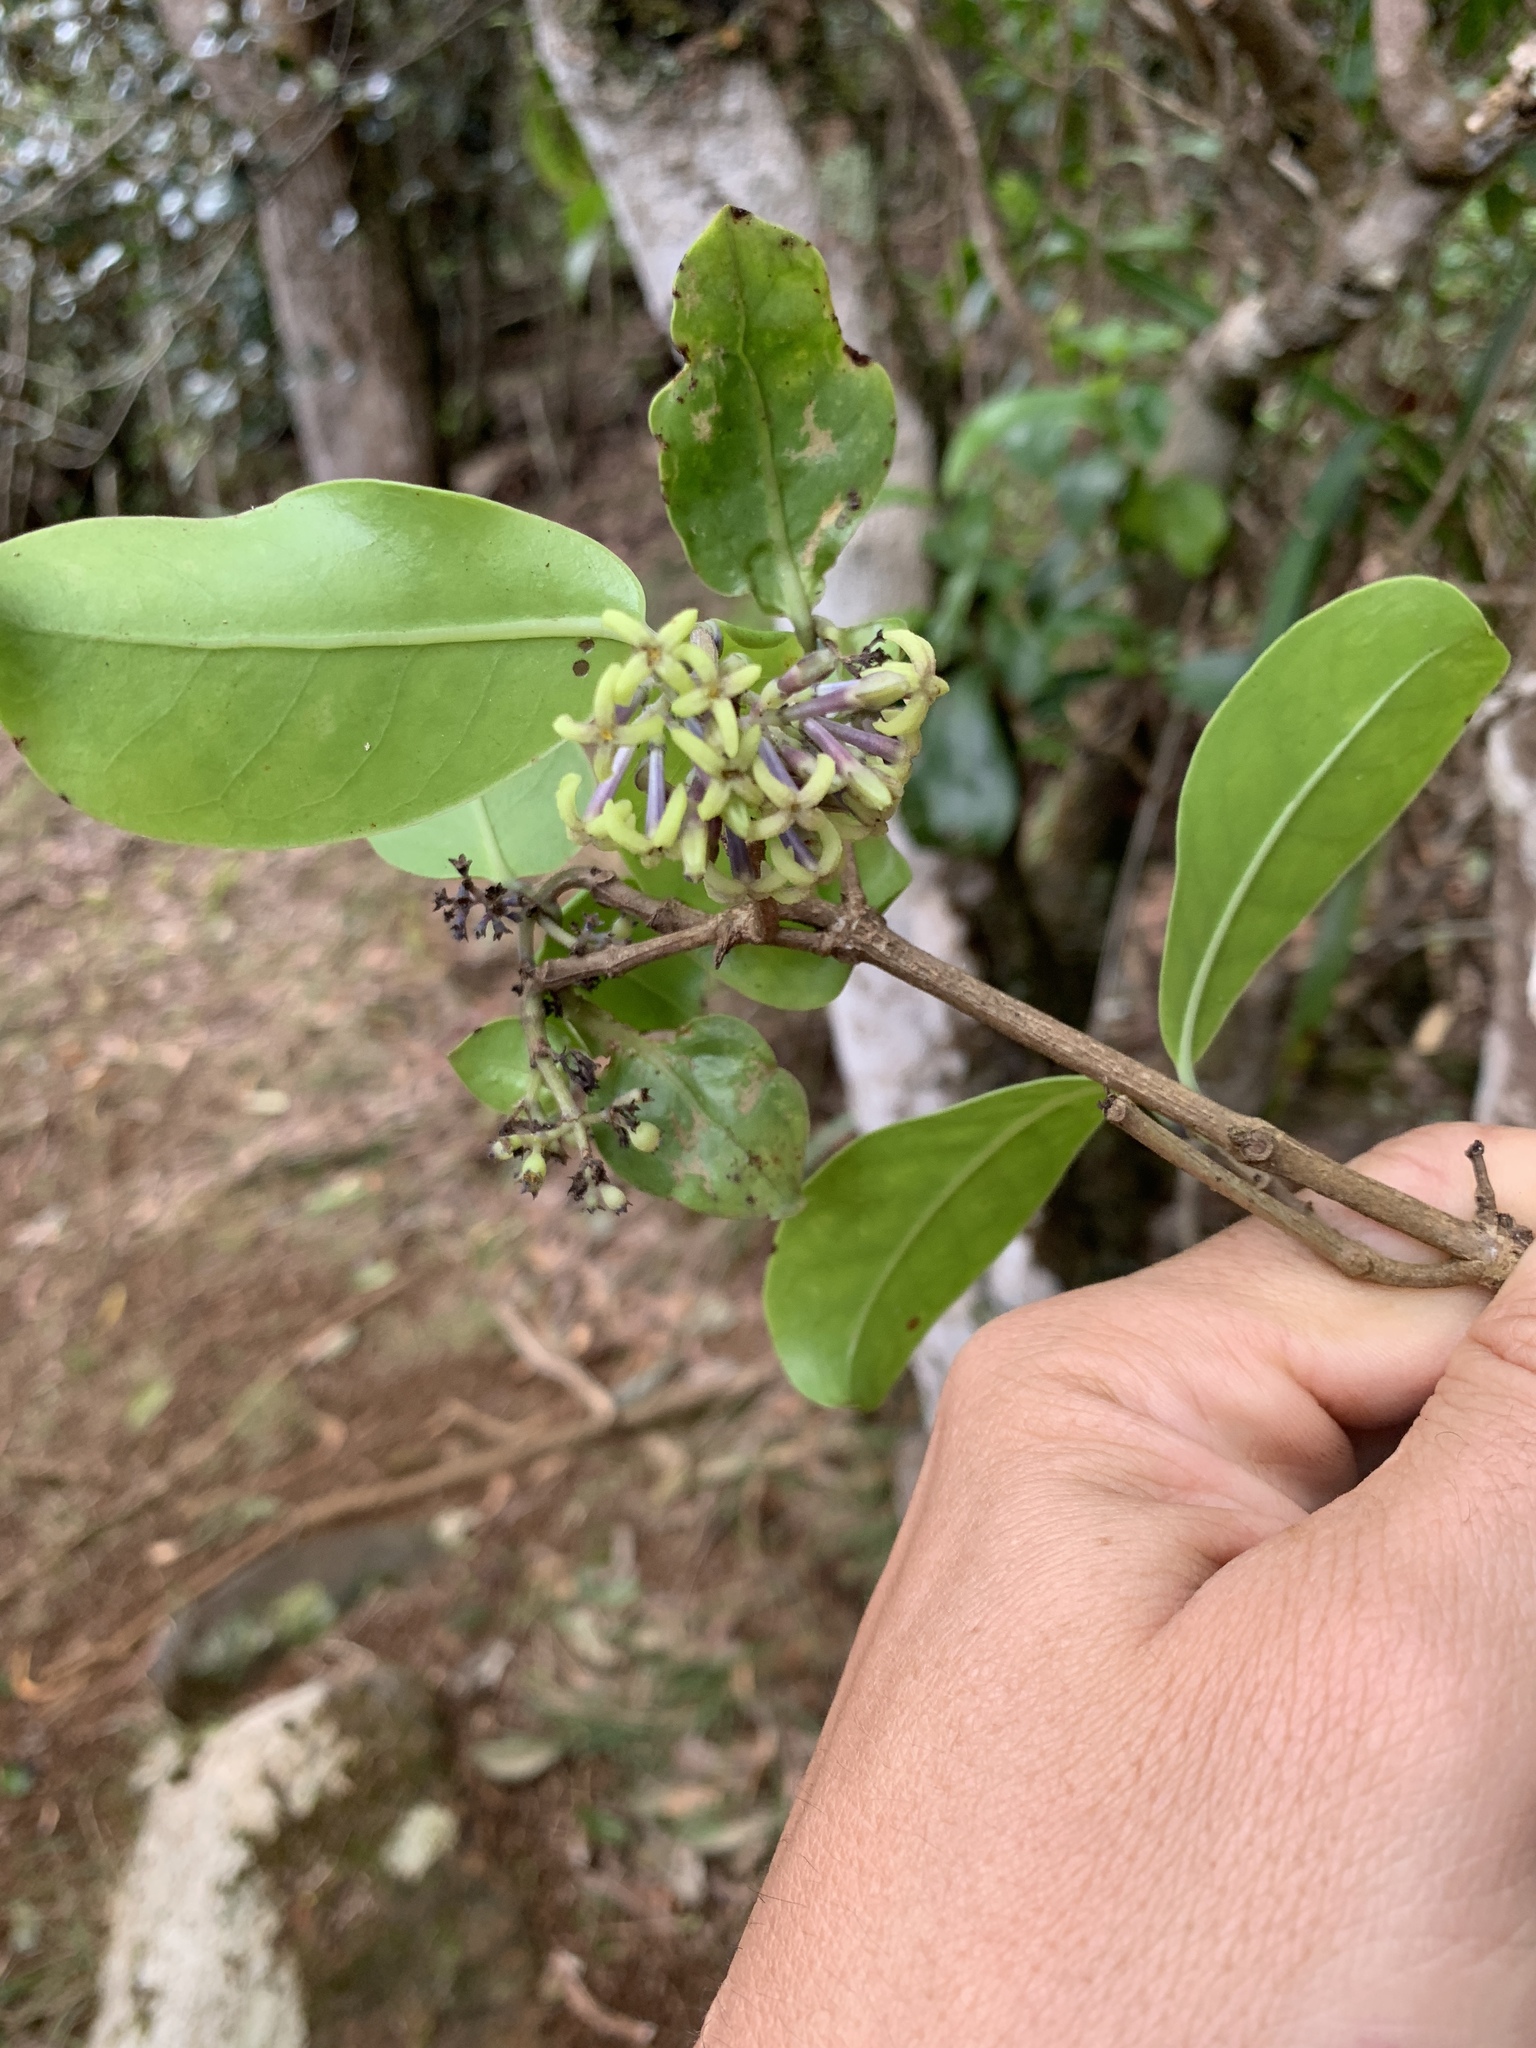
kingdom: Plantae
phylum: Tracheophyta
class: Magnoliopsida
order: Gentianales
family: Rubiaceae
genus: Kadua
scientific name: Kadua affinis
